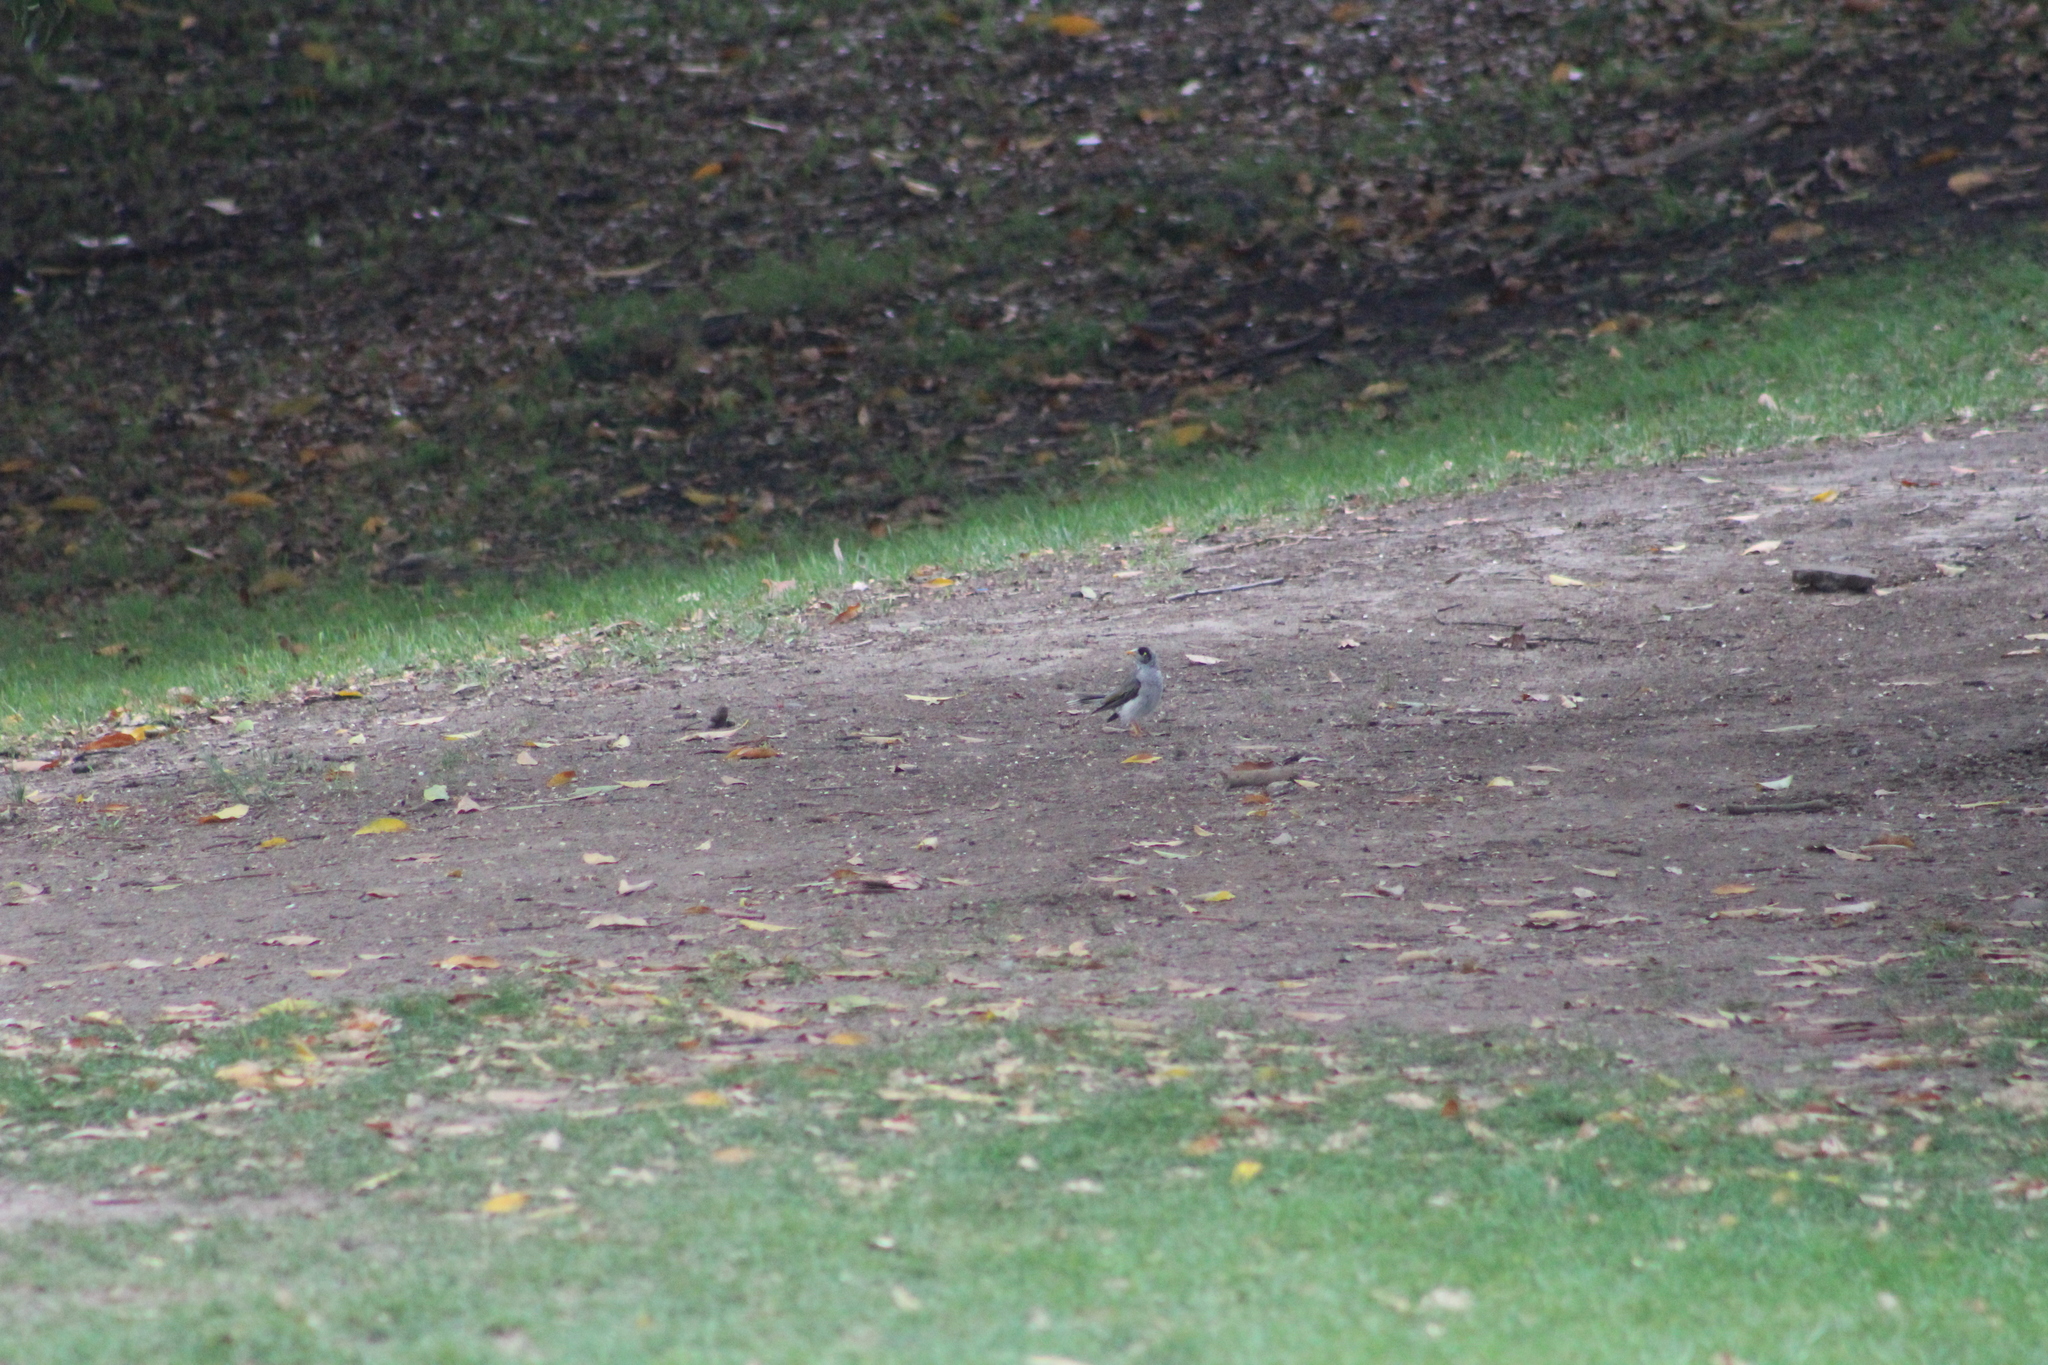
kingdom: Animalia
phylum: Chordata
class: Aves
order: Passeriformes
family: Meliphagidae
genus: Manorina
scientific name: Manorina melanocephala
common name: Noisy miner
